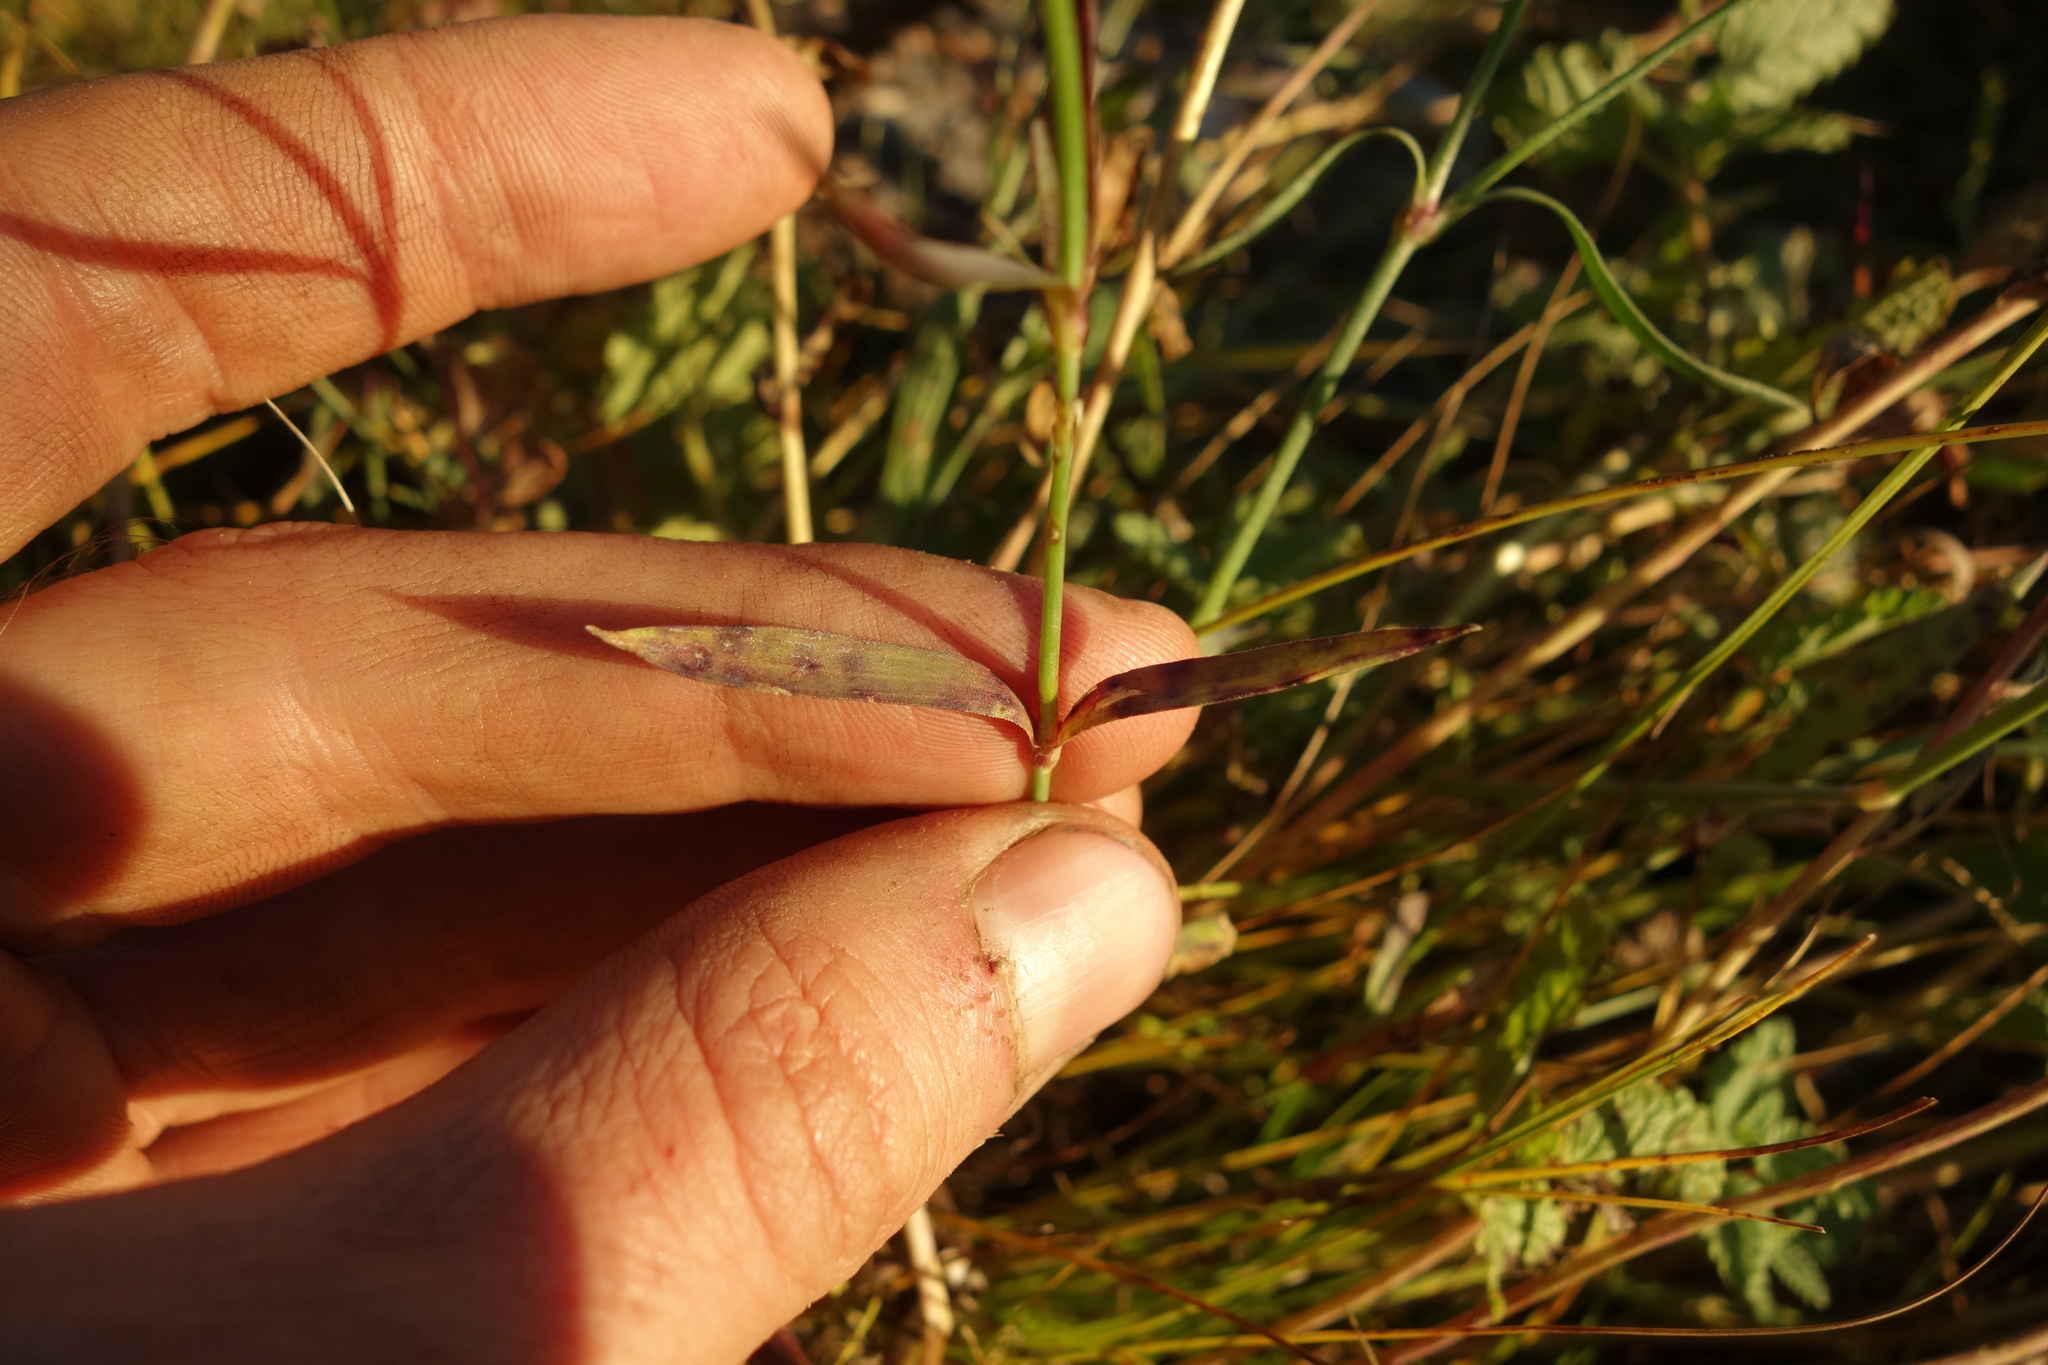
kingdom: Plantae
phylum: Tracheophyta
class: Magnoliopsida
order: Caryophyllales
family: Caryophyllaceae
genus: Dianthus
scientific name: Dianthus chinensis
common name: Rainbow pink
